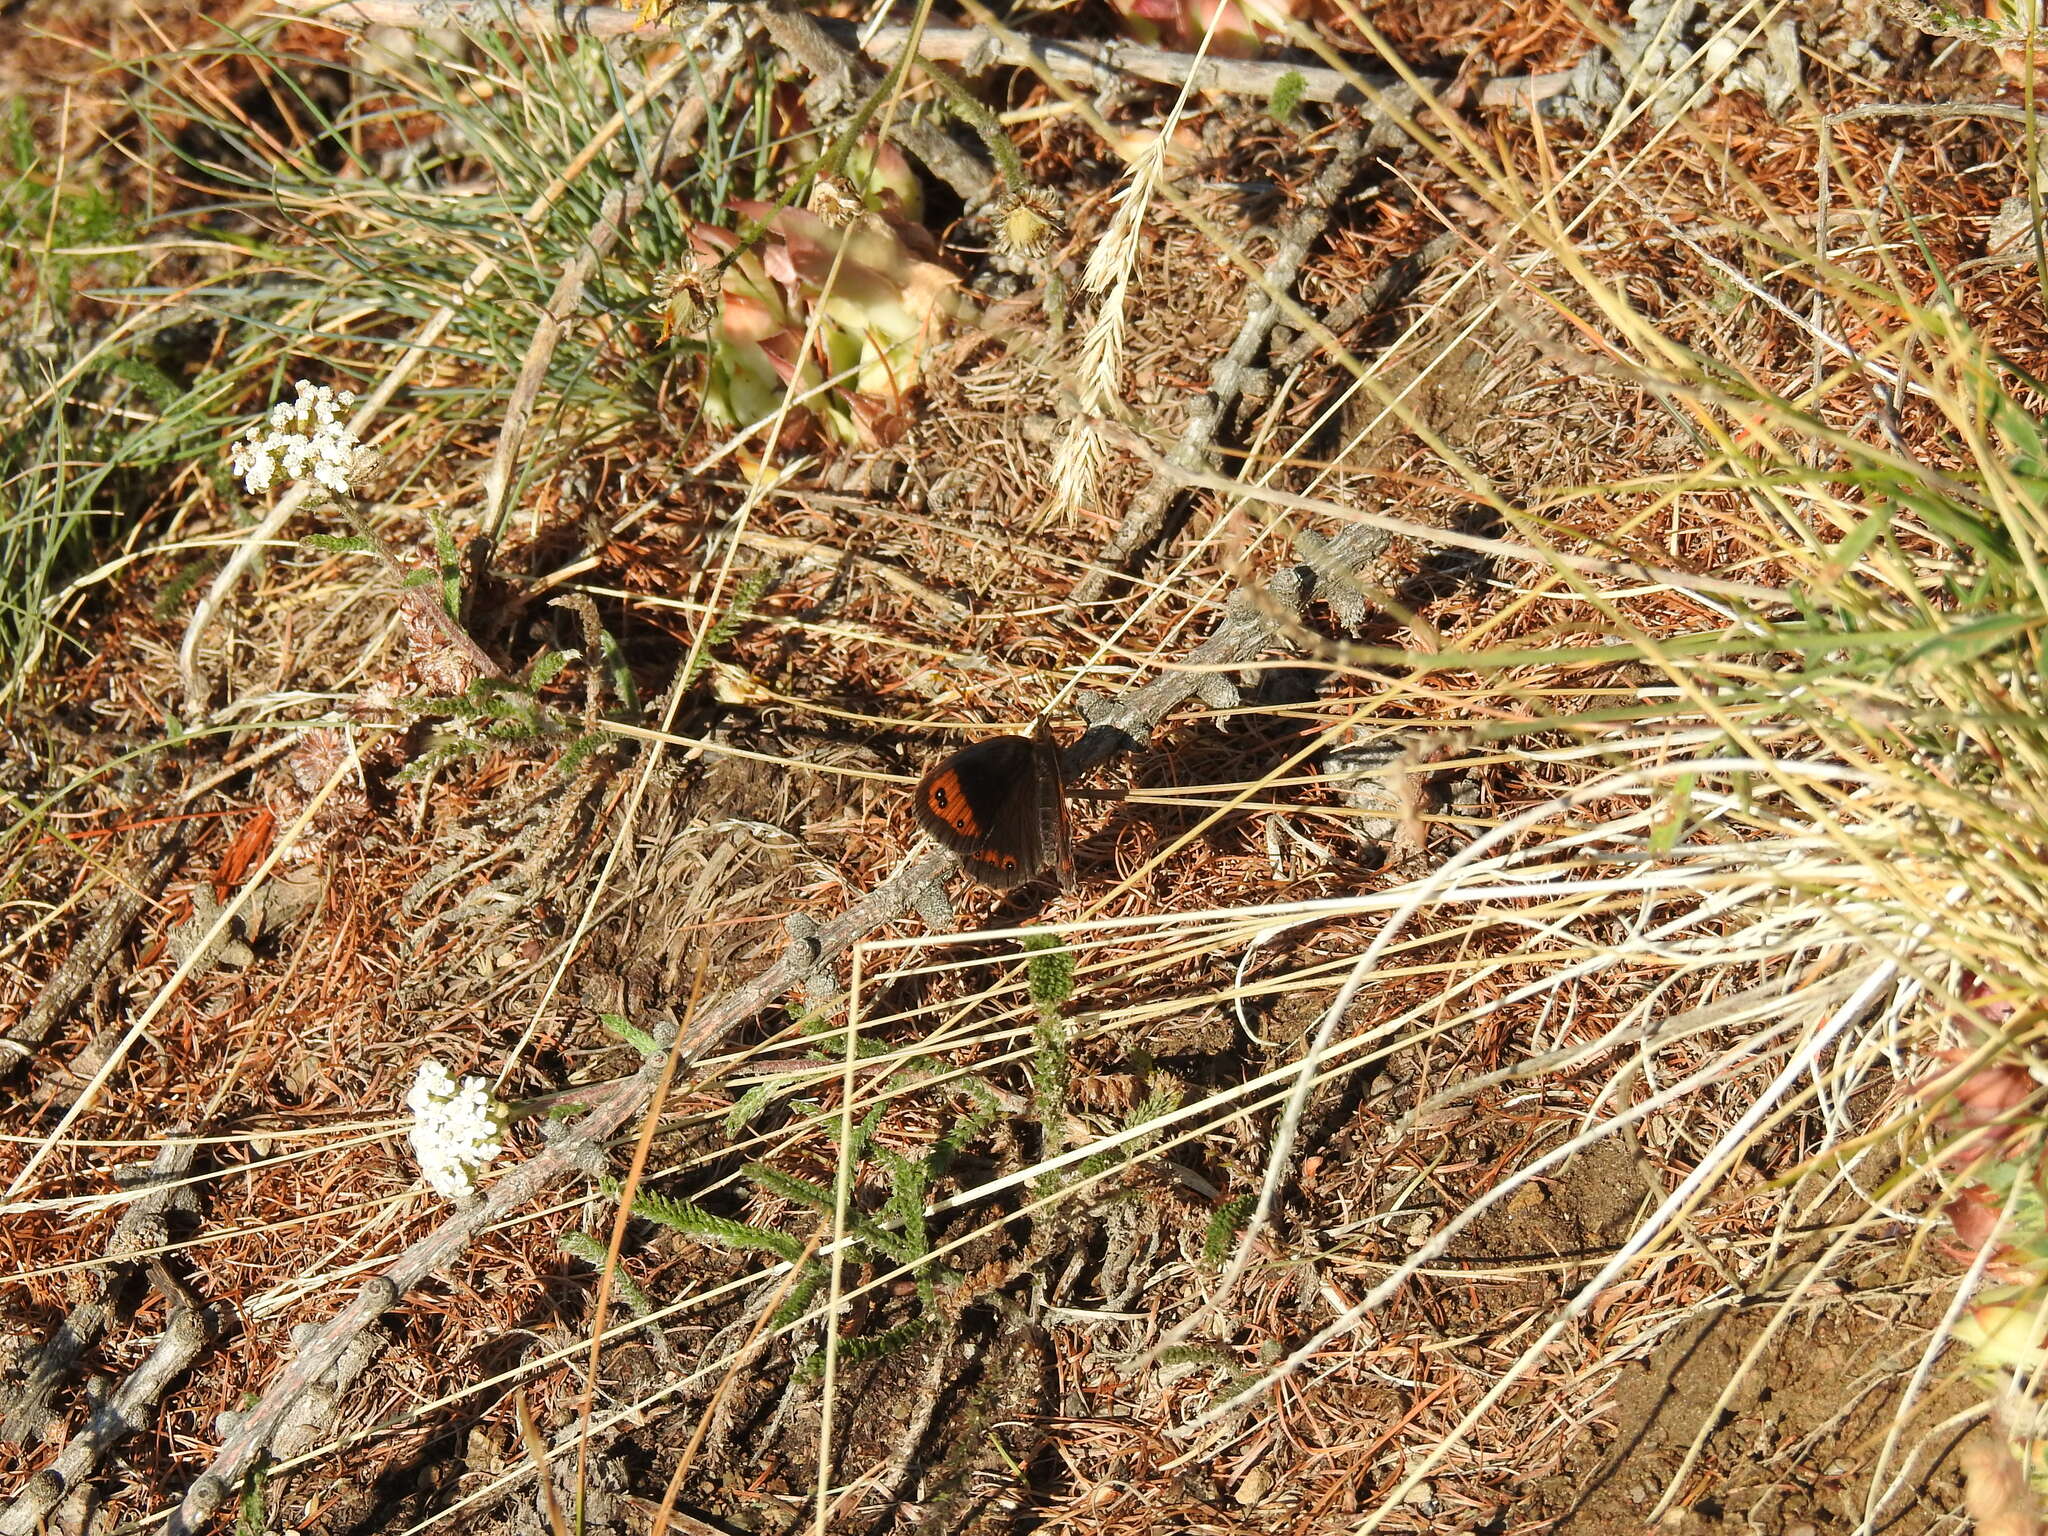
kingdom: Animalia
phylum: Arthropoda
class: Insecta
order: Lepidoptera
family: Nymphalidae
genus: Erebia
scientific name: Erebia neoridas
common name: Autumn ringlet
